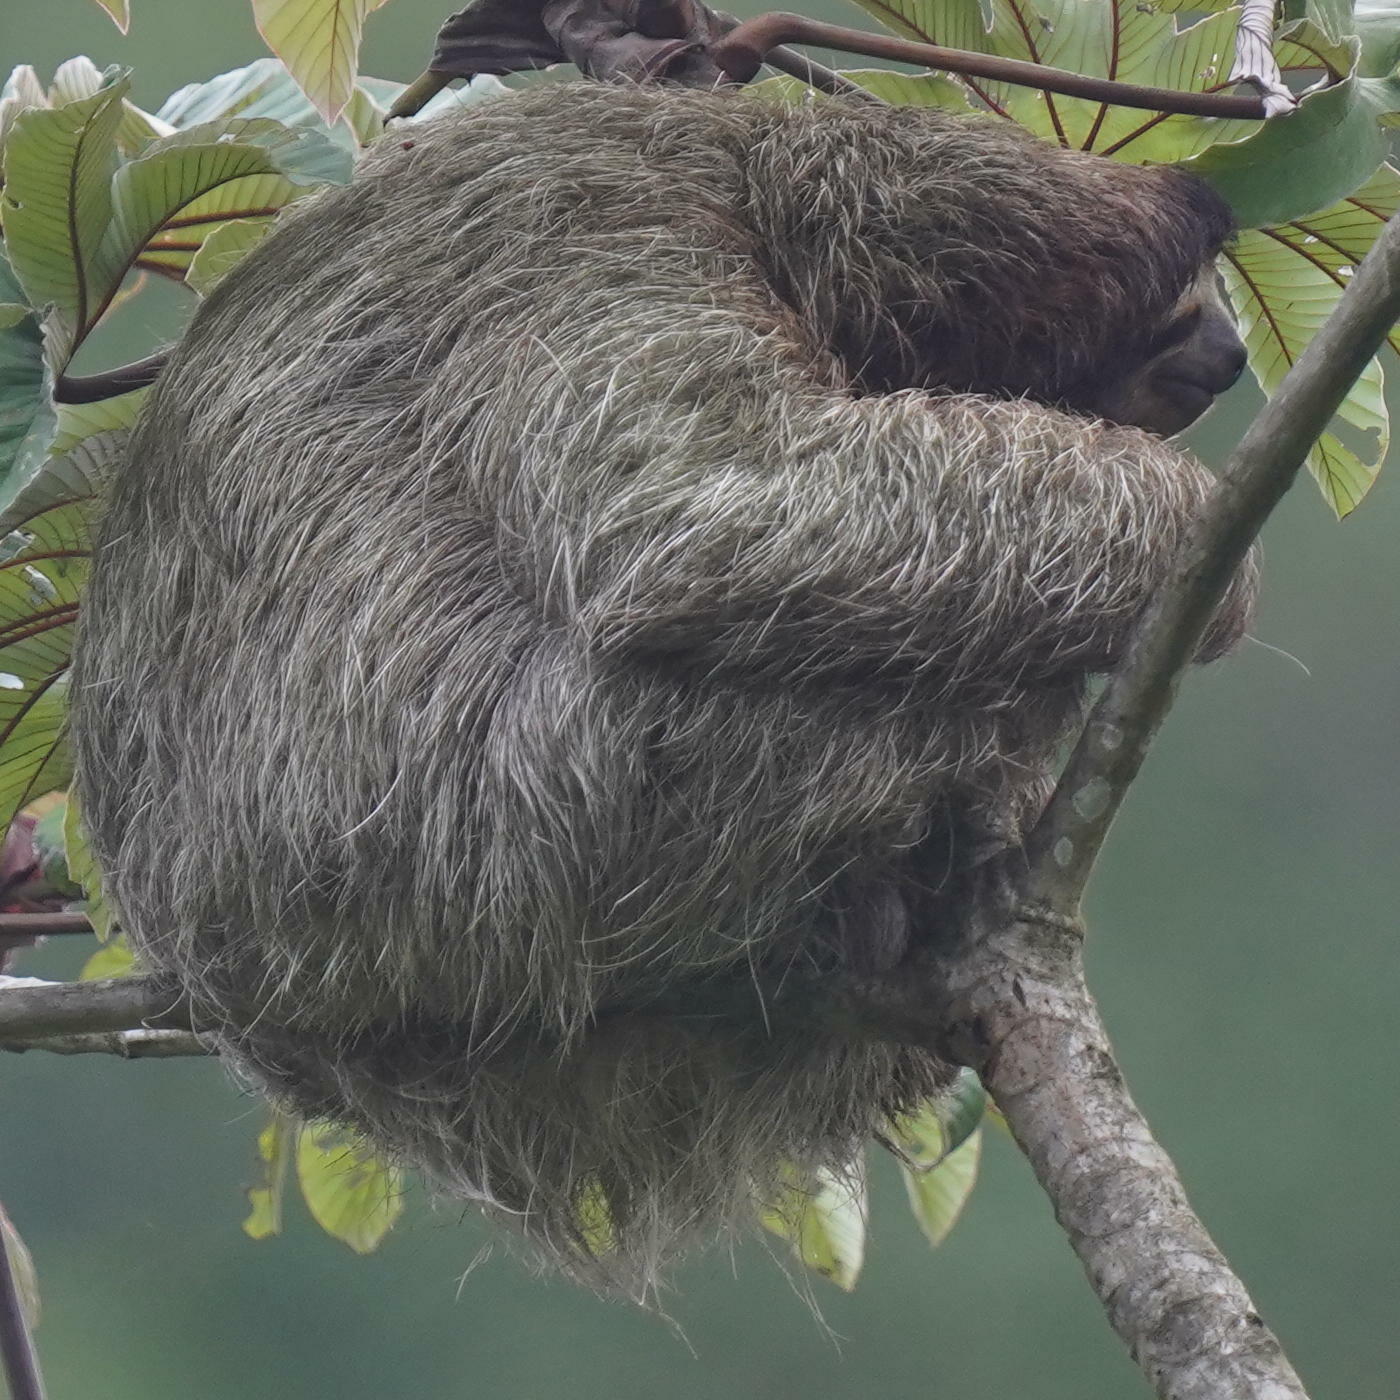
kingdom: Animalia
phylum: Chordata
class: Mammalia
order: Pilosa
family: Bradypodidae
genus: Bradypus
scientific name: Bradypus variegatus
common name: Brown-throated three-toed sloth
